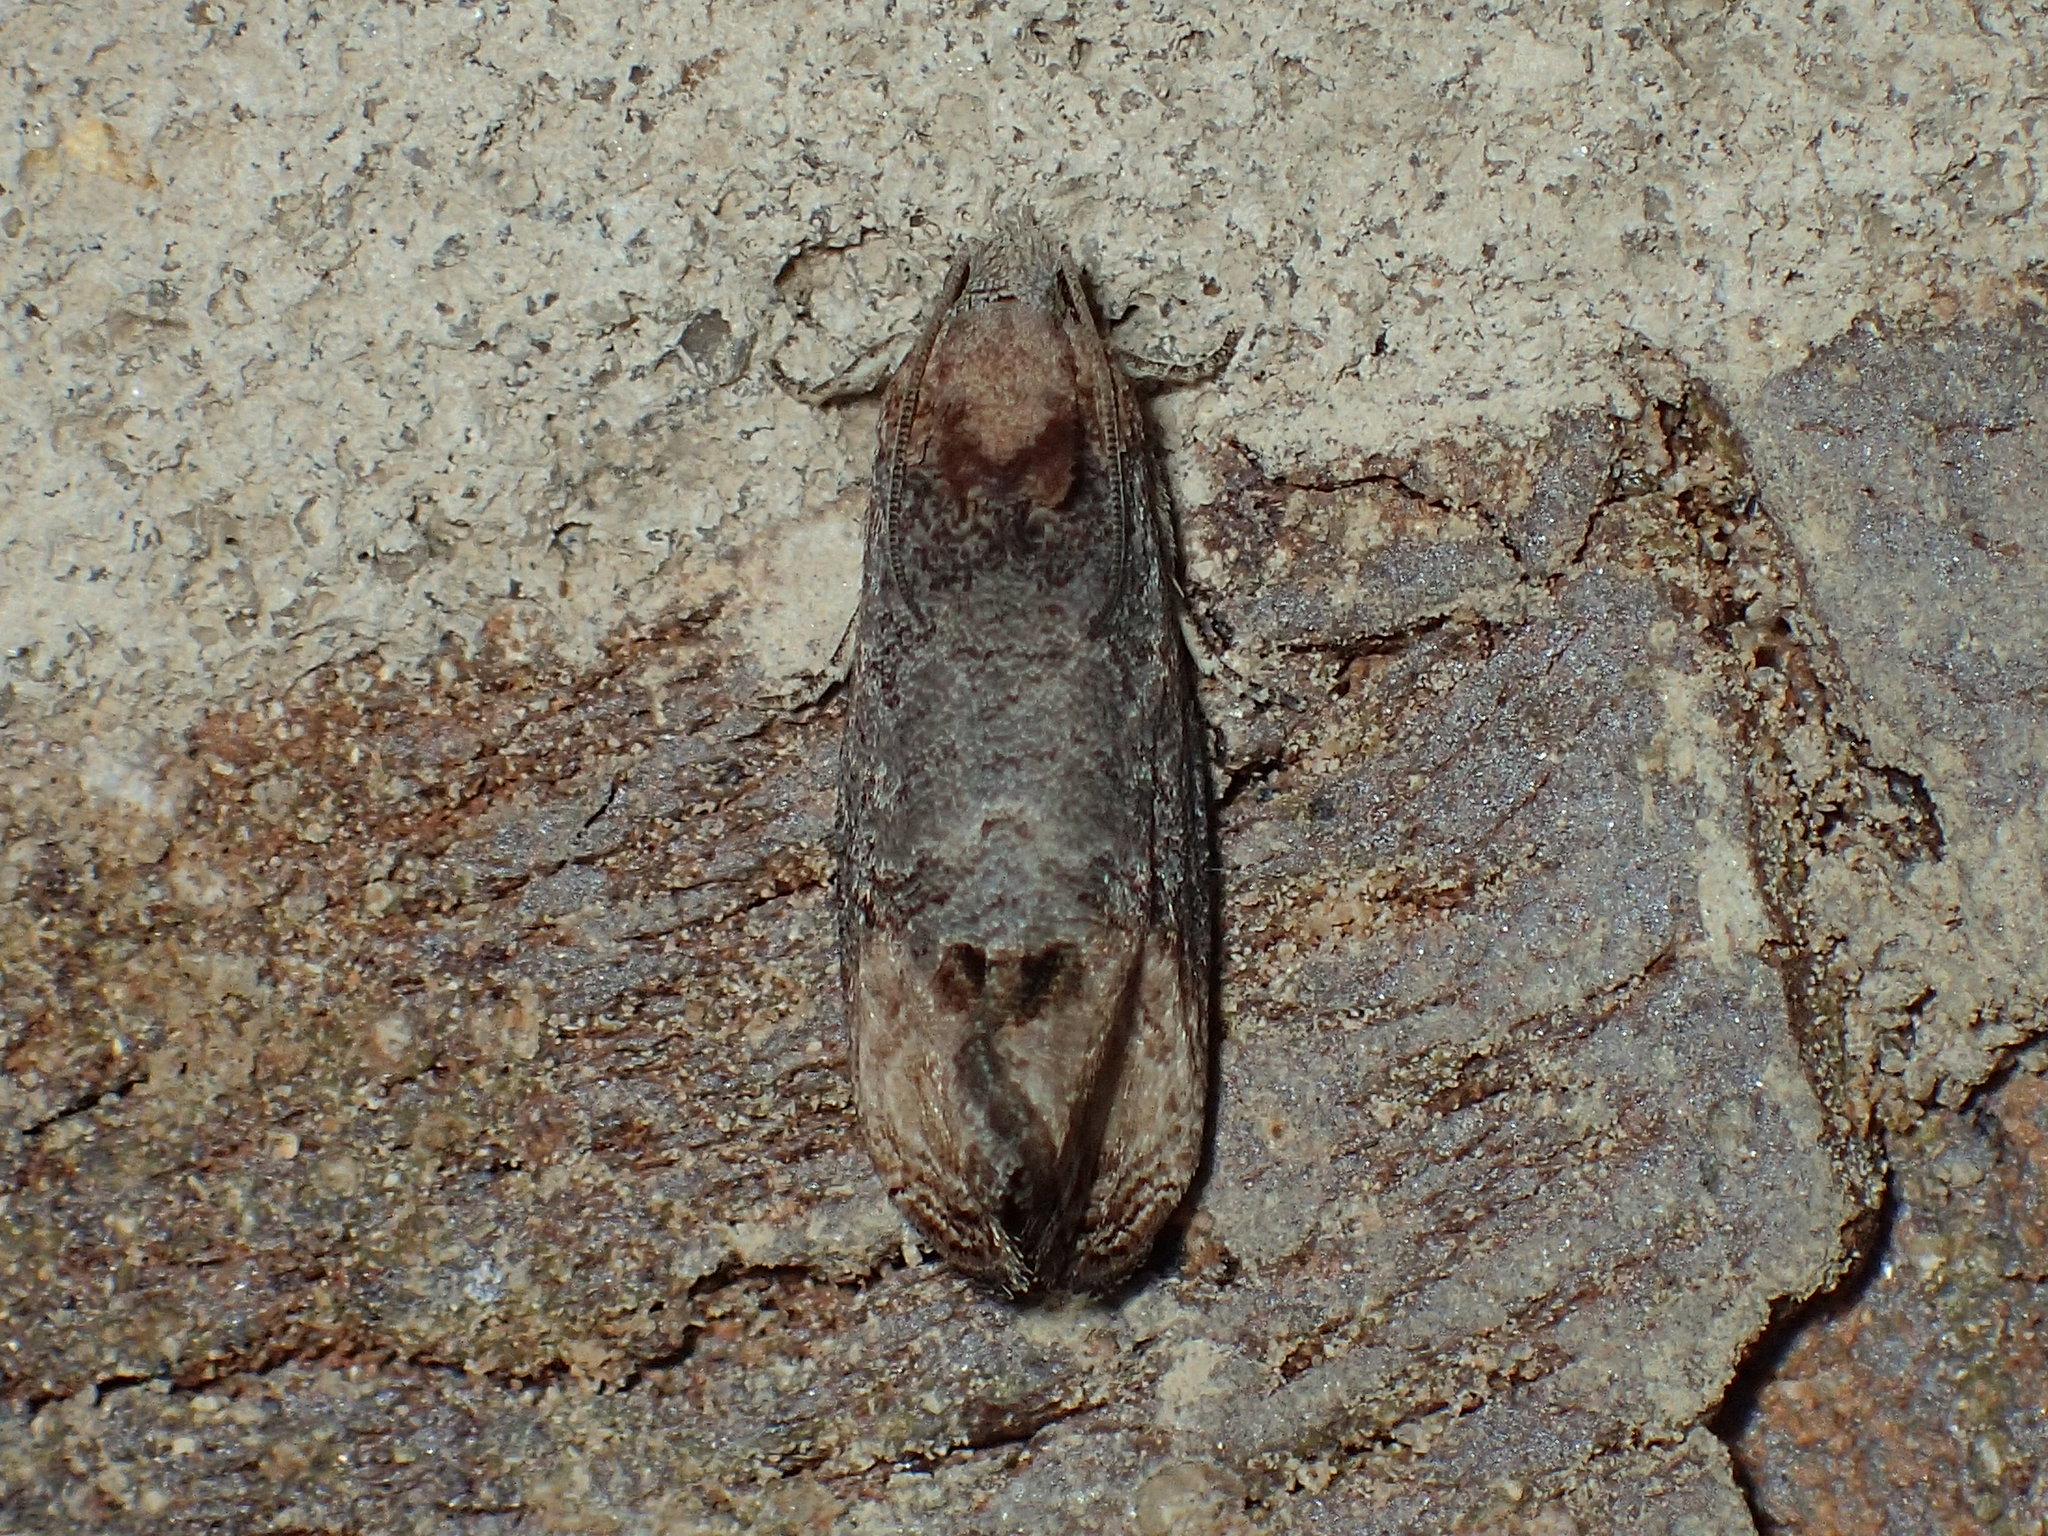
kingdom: Animalia
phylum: Arthropoda
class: Insecta
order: Lepidoptera
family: Tortricidae
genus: Paralobesia
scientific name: Paralobesia cyclopiana
